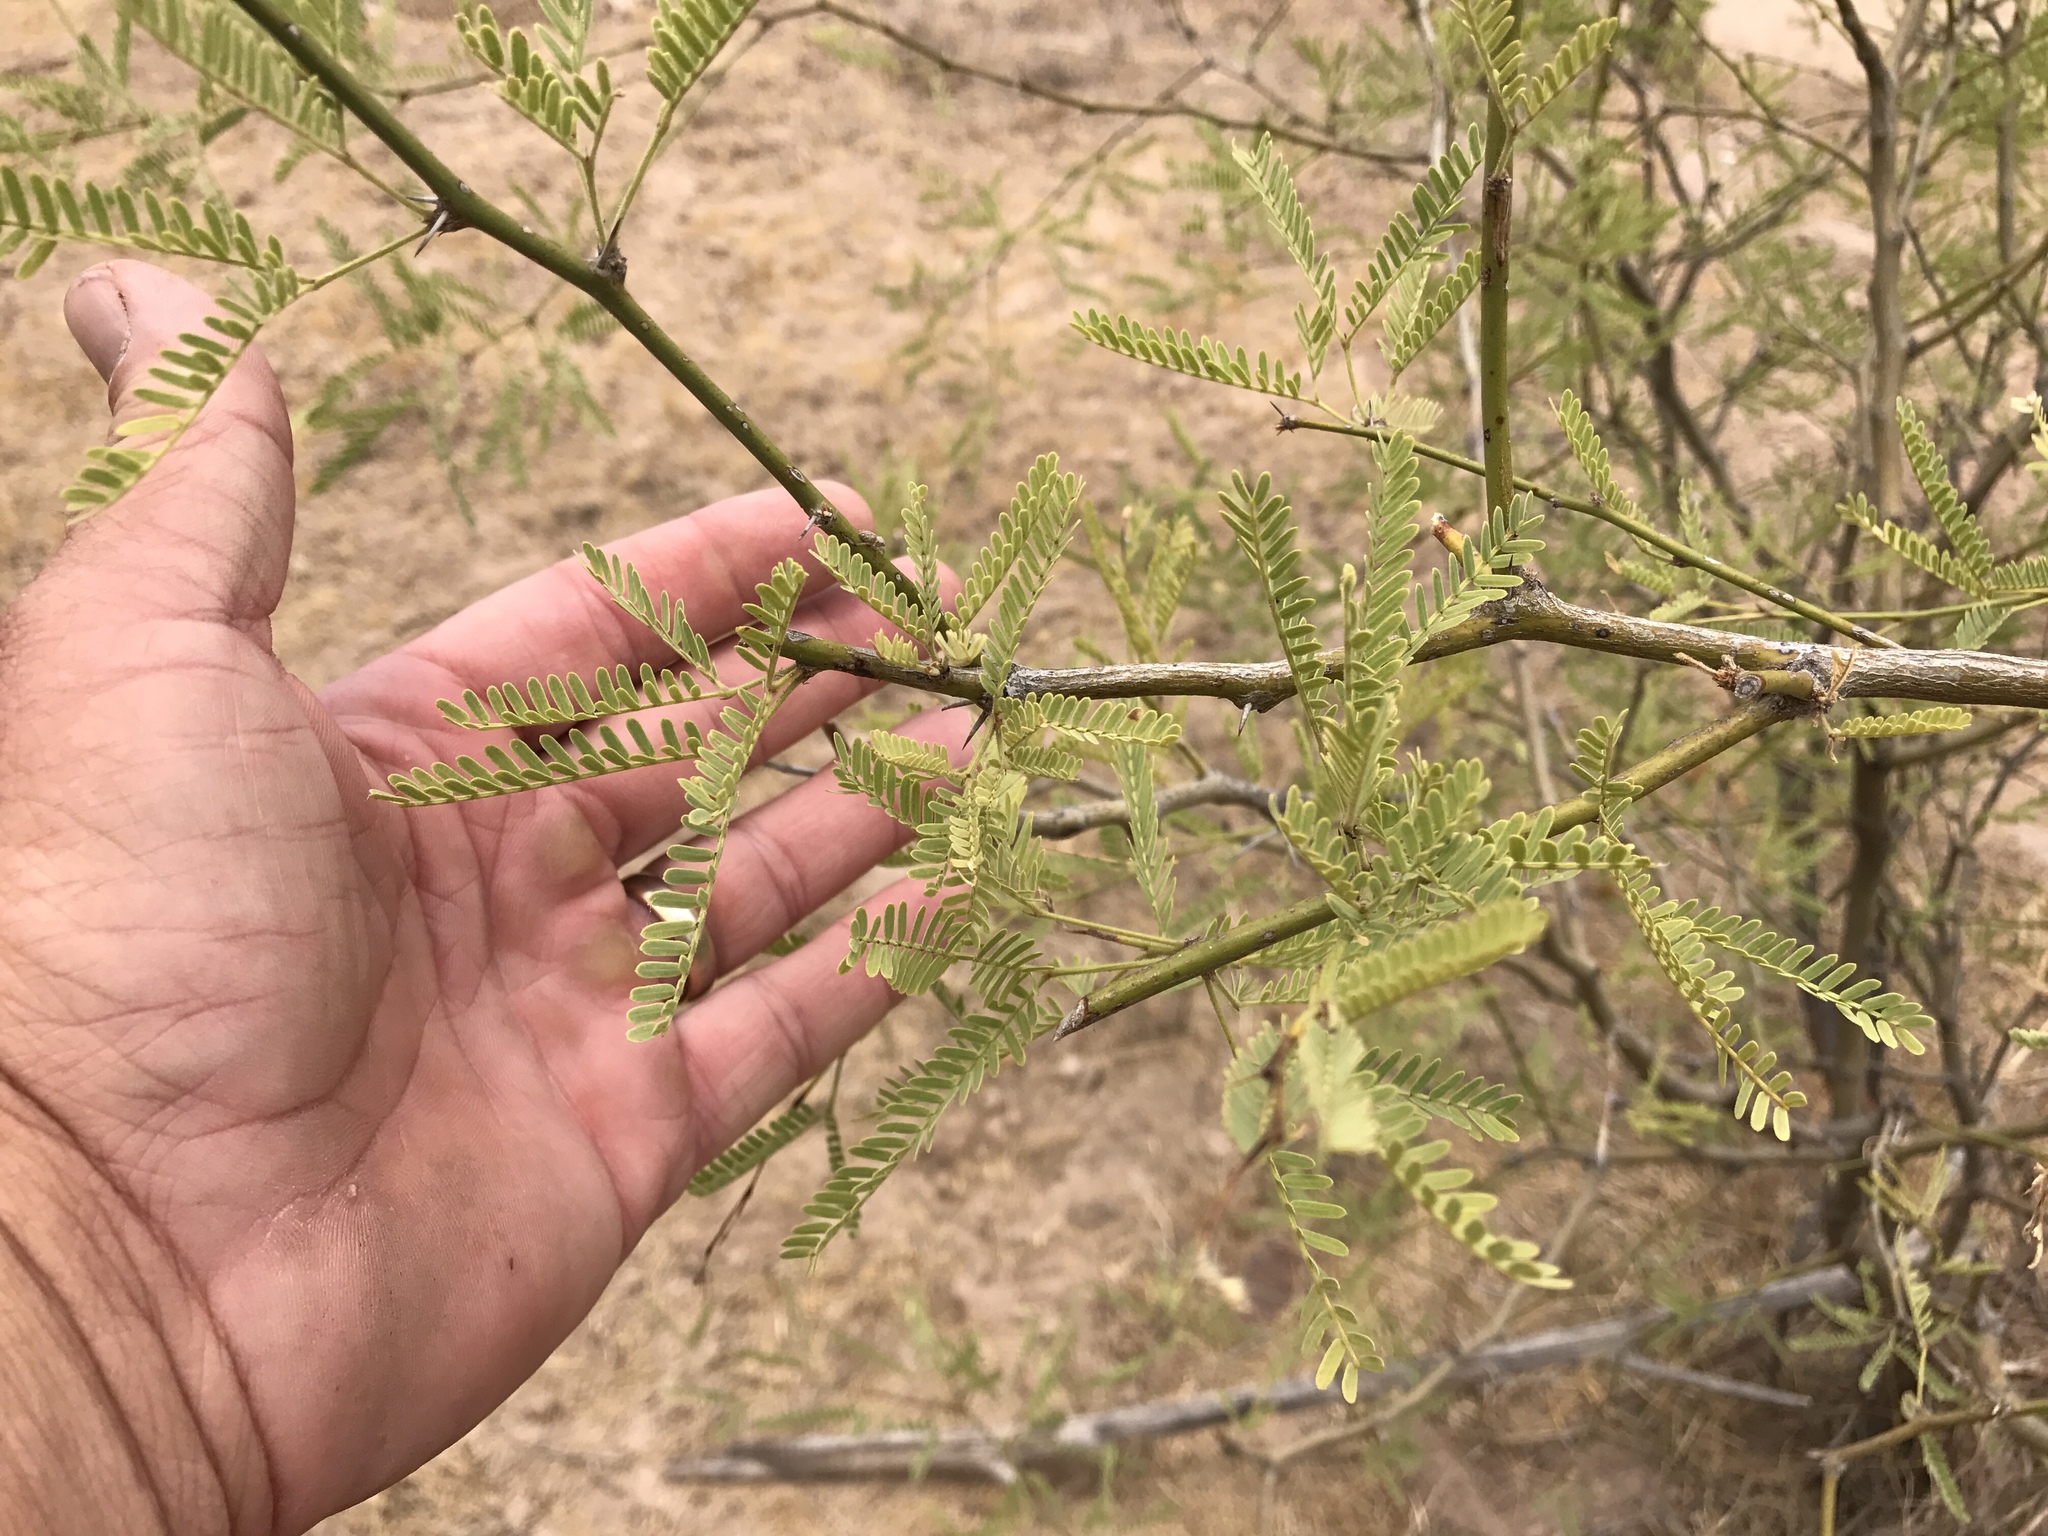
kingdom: Plantae
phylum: Tracheophyta
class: Magnoliopsida
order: Fabales
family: Fabaceae
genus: Prosopis
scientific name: Prosopis velutina
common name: Velvet mesquite
